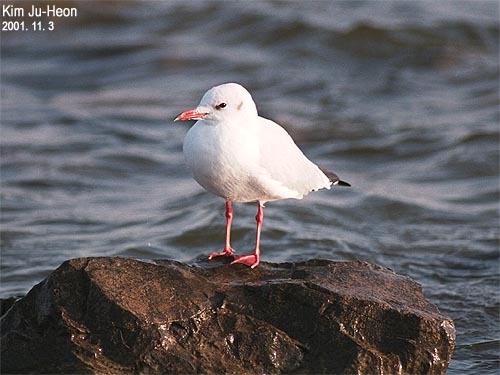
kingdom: Animalia
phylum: Chordata
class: Aves
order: Charadriiformes
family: Laridae
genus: Chroicocephalus
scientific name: Chroicocephalus ridibundus
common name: Black-headed gull
